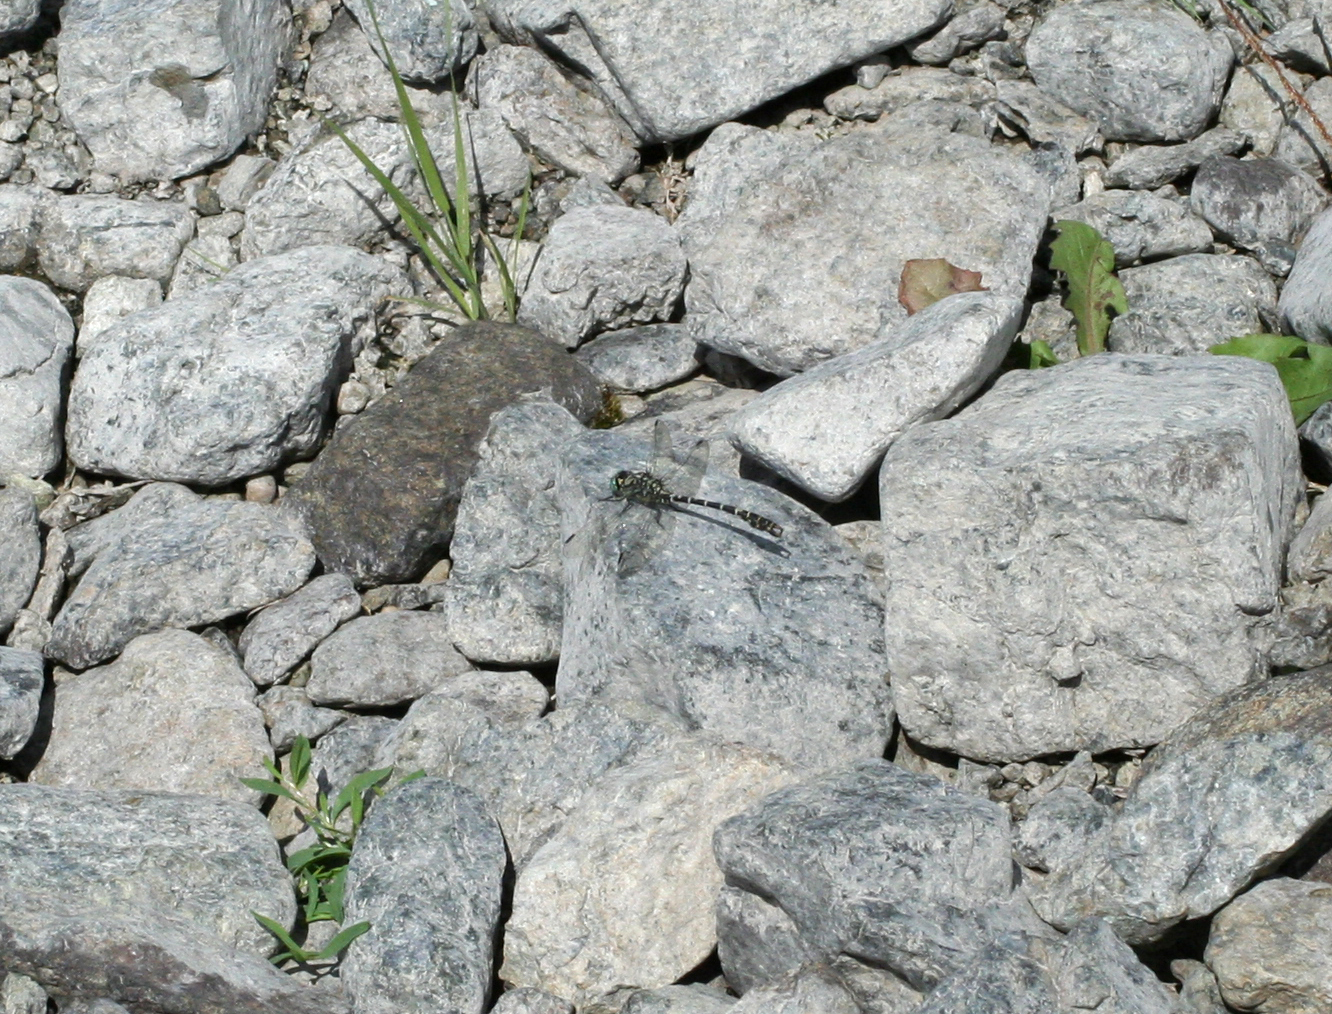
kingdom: Animalia
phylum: Arthropoda
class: Insecta
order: Odonata
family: Gomphidae
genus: Onychogomphus
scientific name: Onychogomphus forcipatus
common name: Small pincertail
